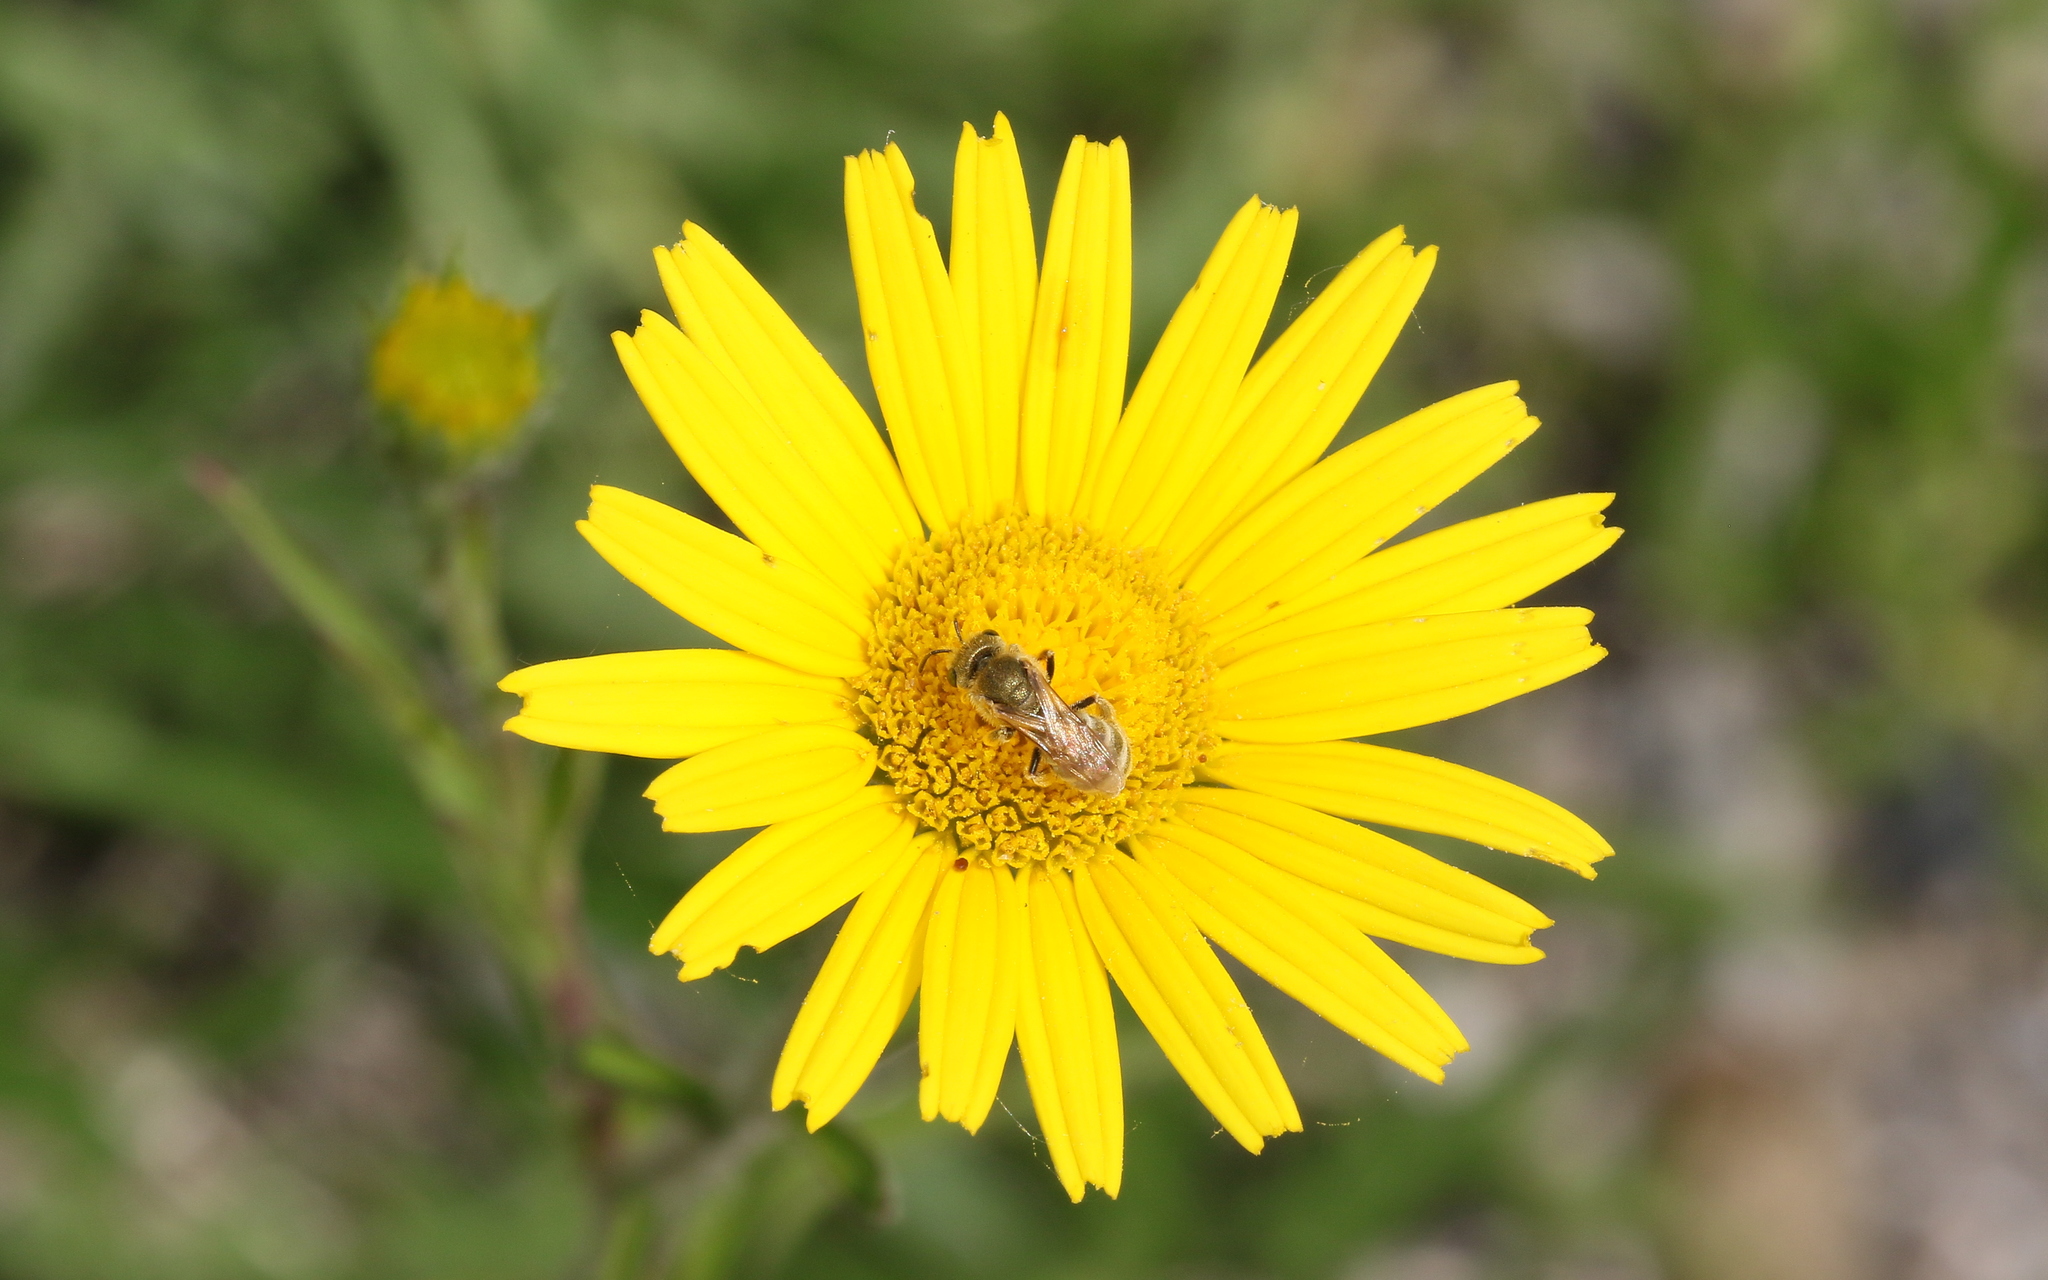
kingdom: Animalia
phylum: Arthropoda
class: Insecta
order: Hymenoptera
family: Halictidae
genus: Halictus
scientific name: Halictus subauratus
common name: Golden furrow bee
